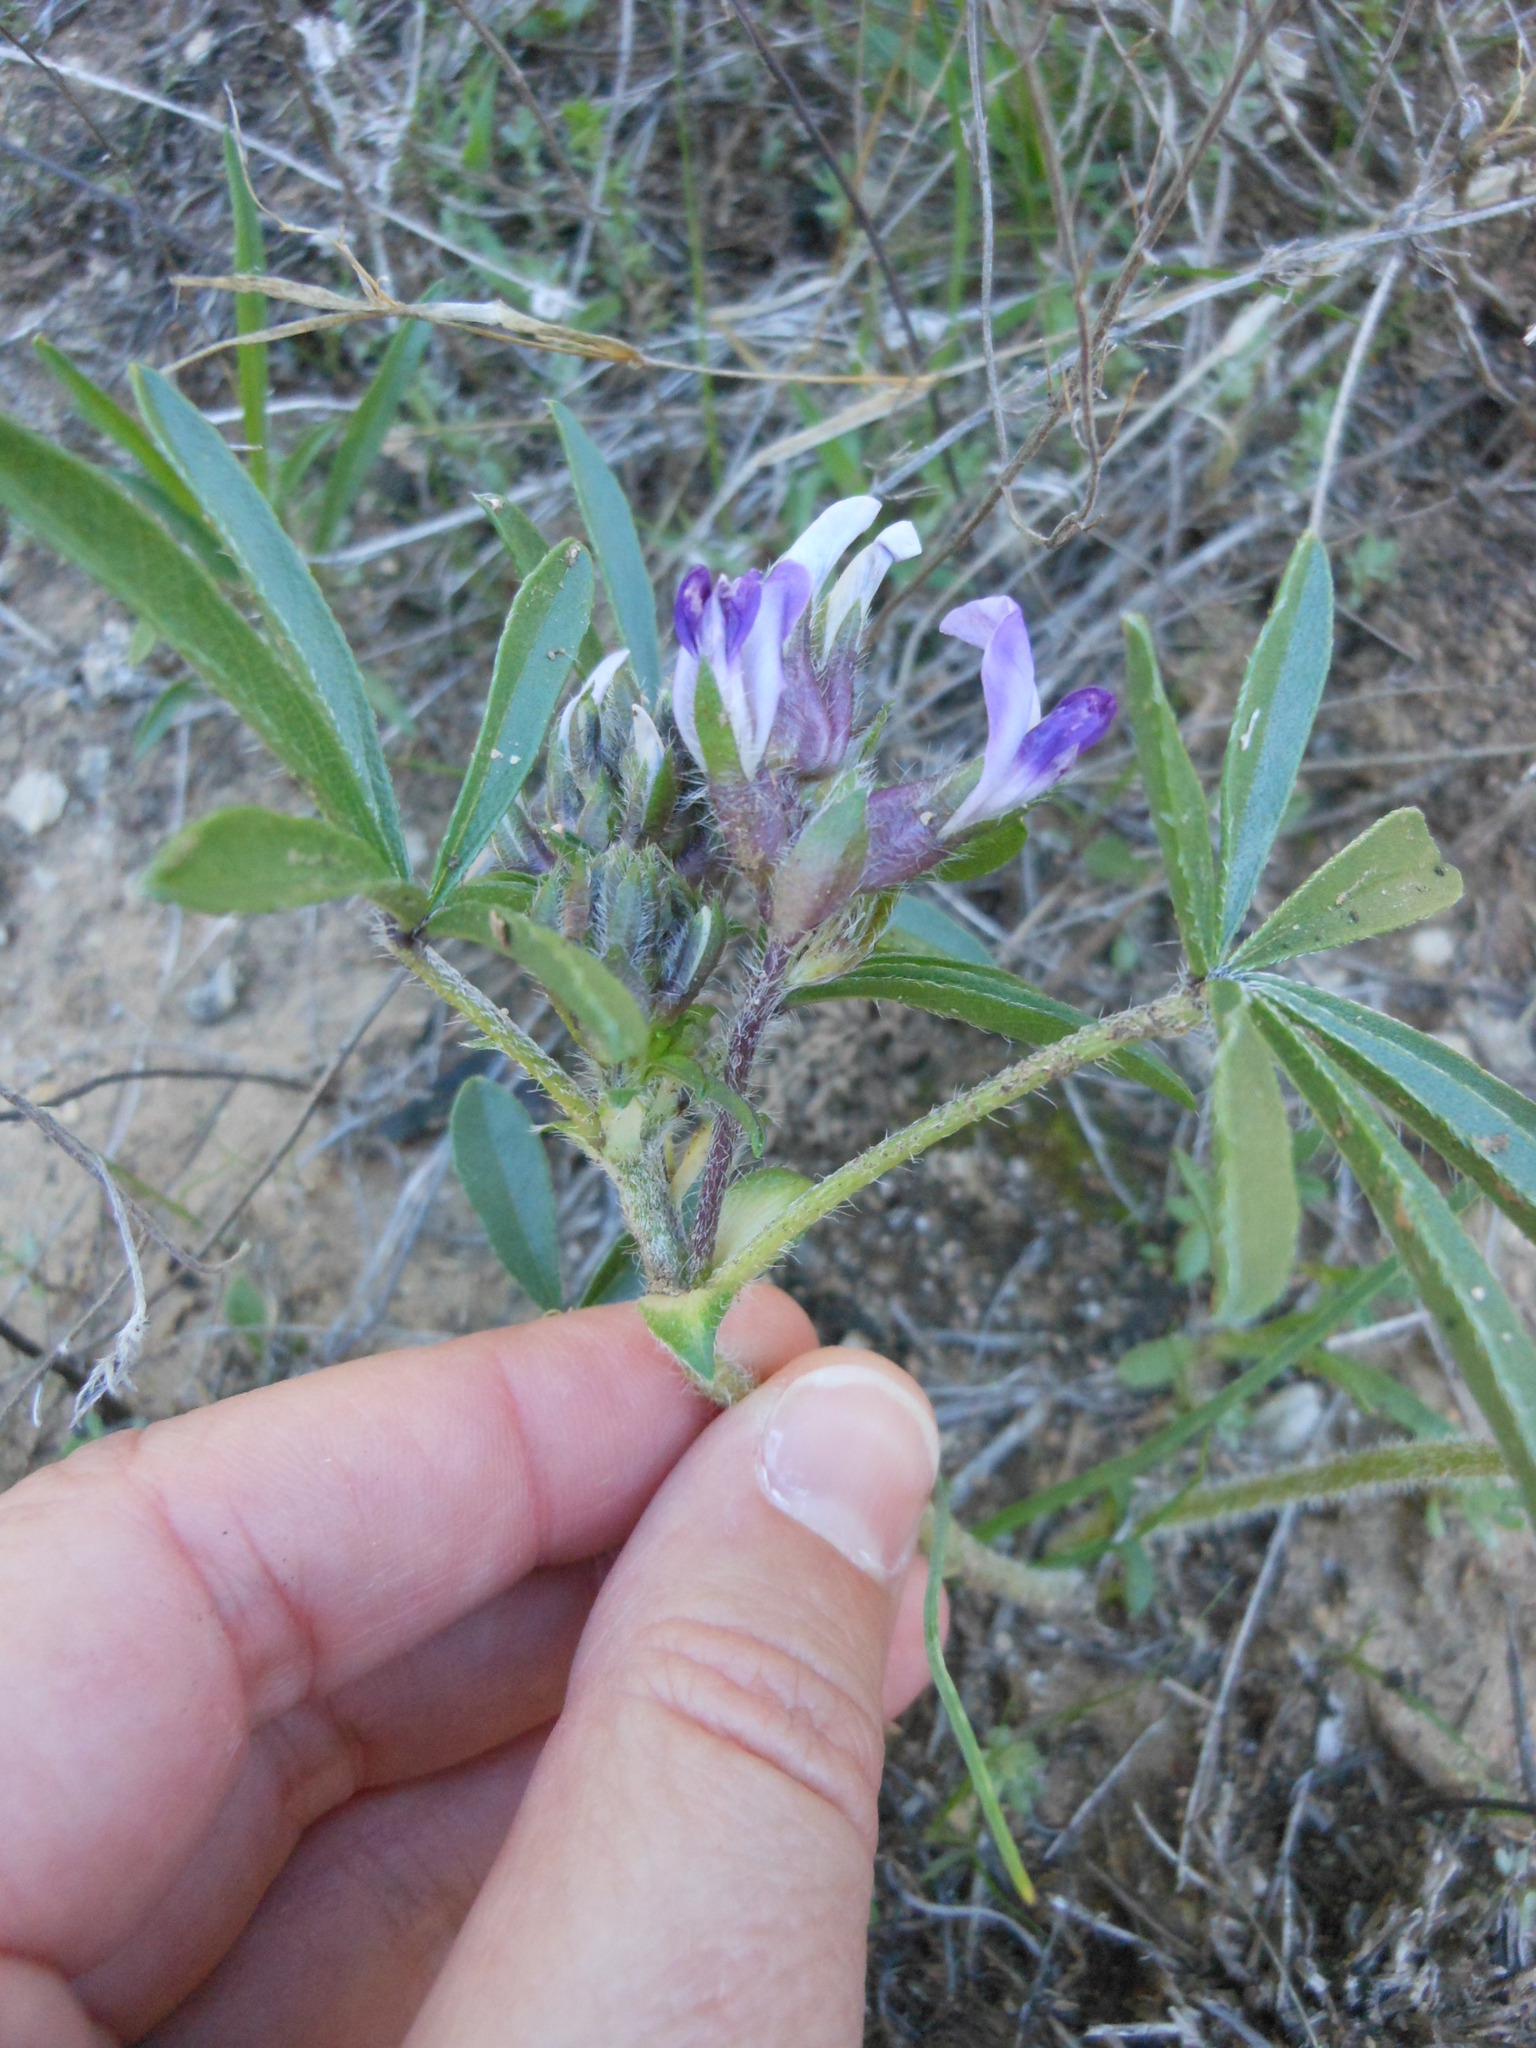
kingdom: Plantae
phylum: Tracheophyta
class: Magnoliopsida
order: Fabales
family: Fabaceae
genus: Pediomelum
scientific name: Pediomelum latestipulatum
